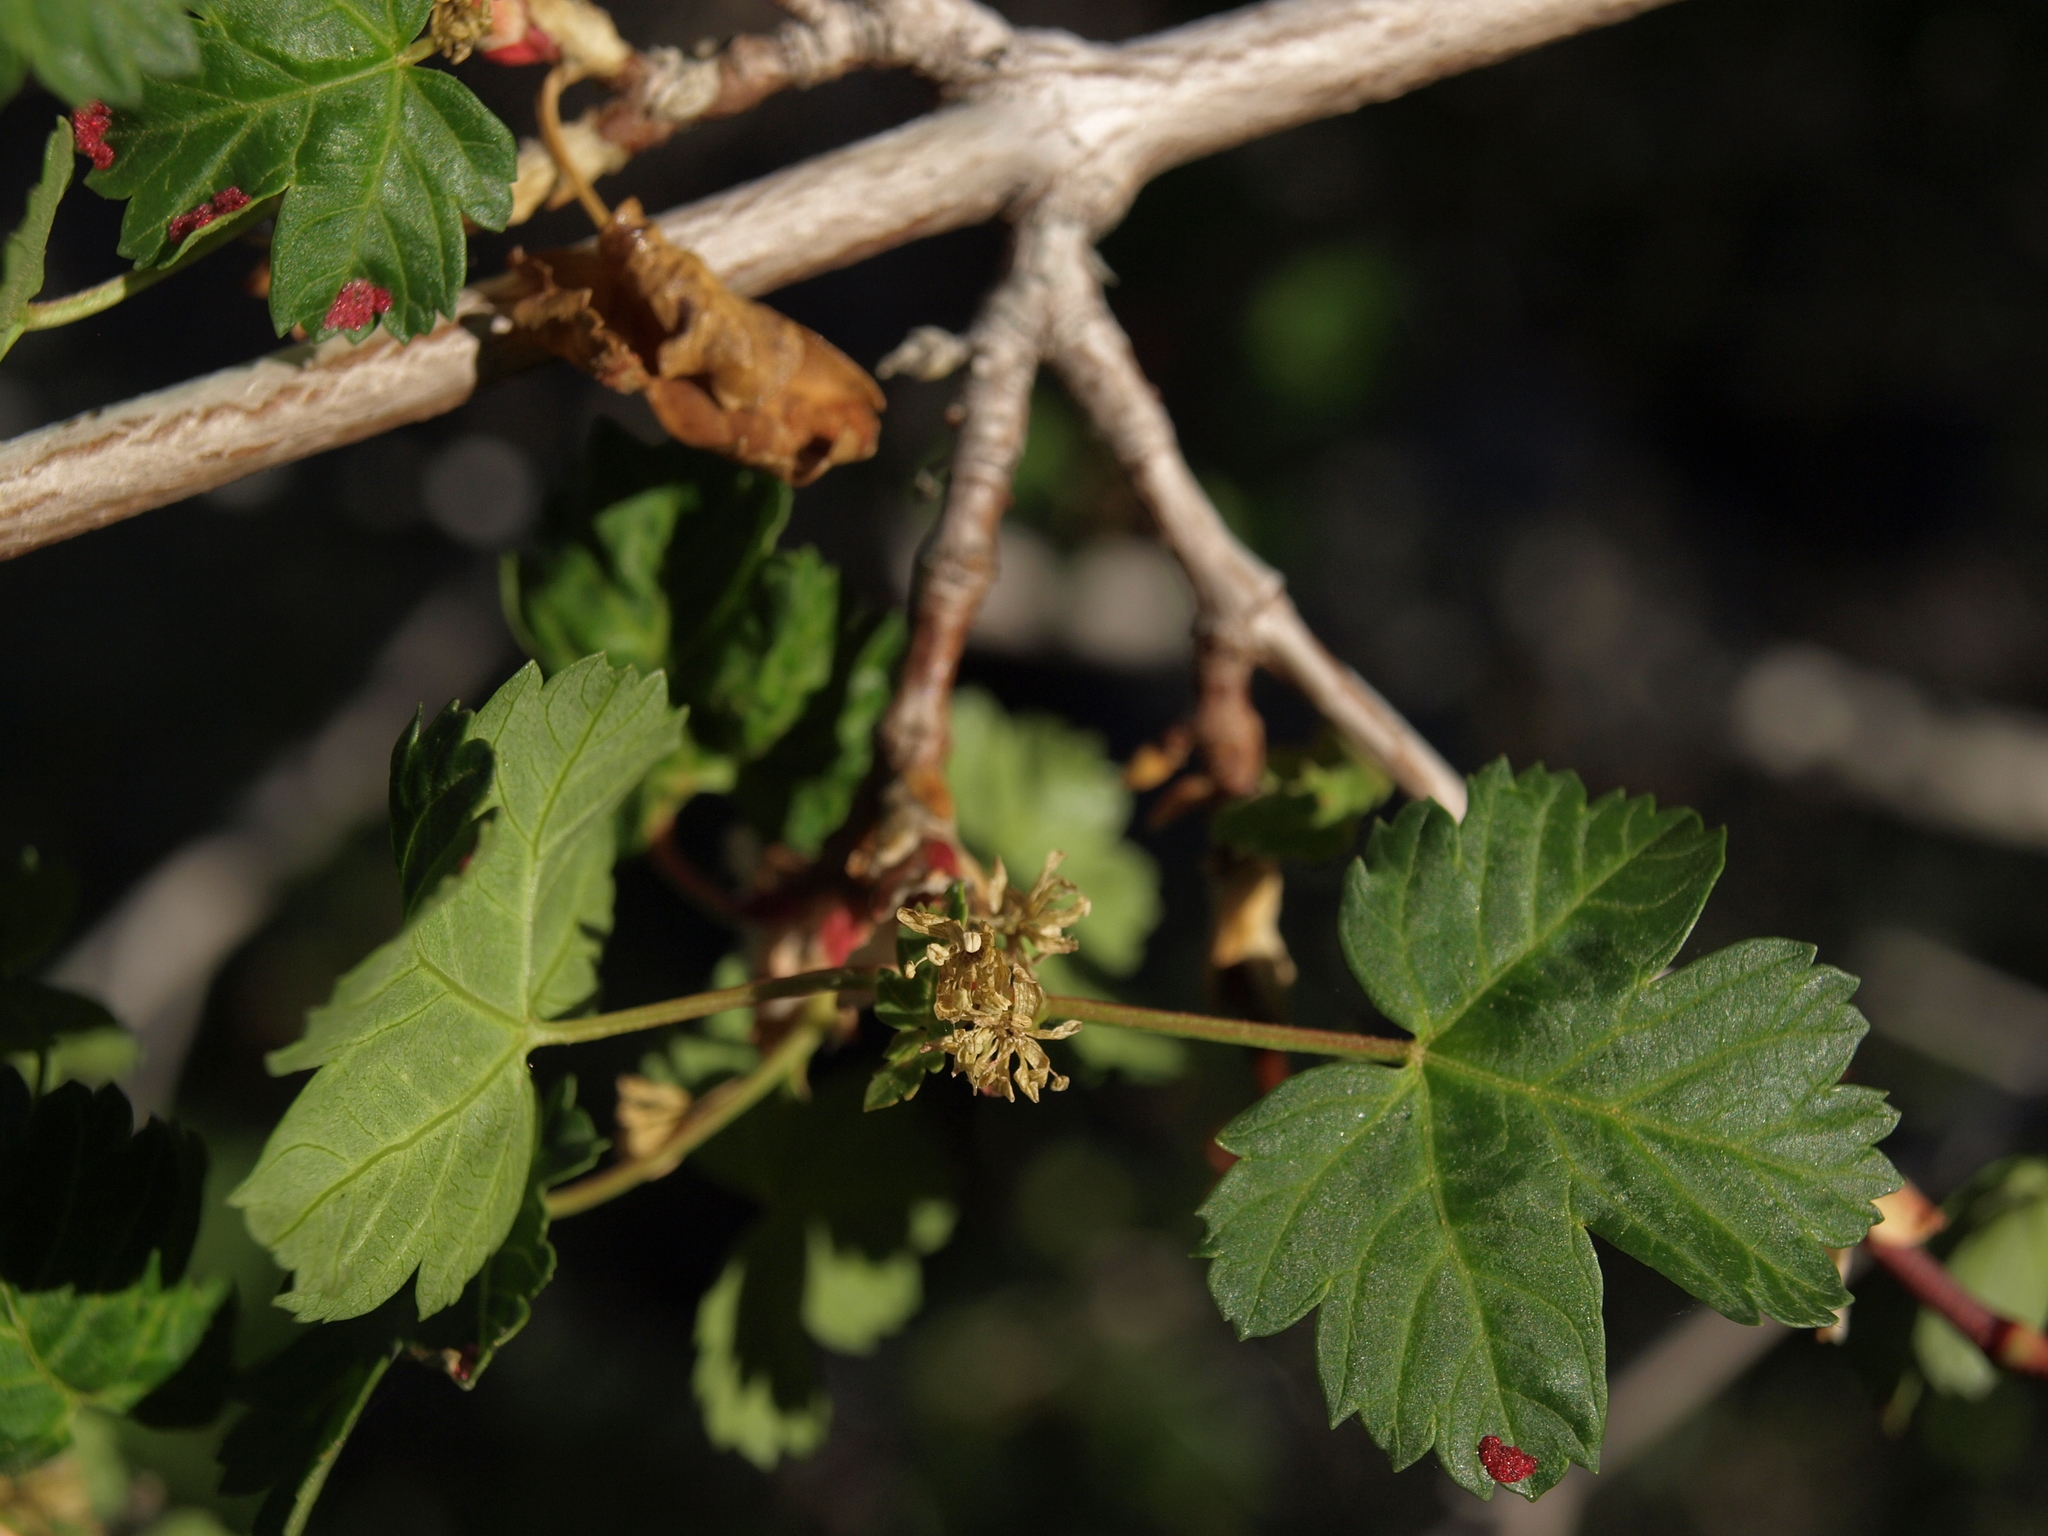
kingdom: Animalia
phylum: Arthropoda
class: Arachnida
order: Trombidiformes
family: Eriophyidae
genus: Aceria
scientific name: Aceria
